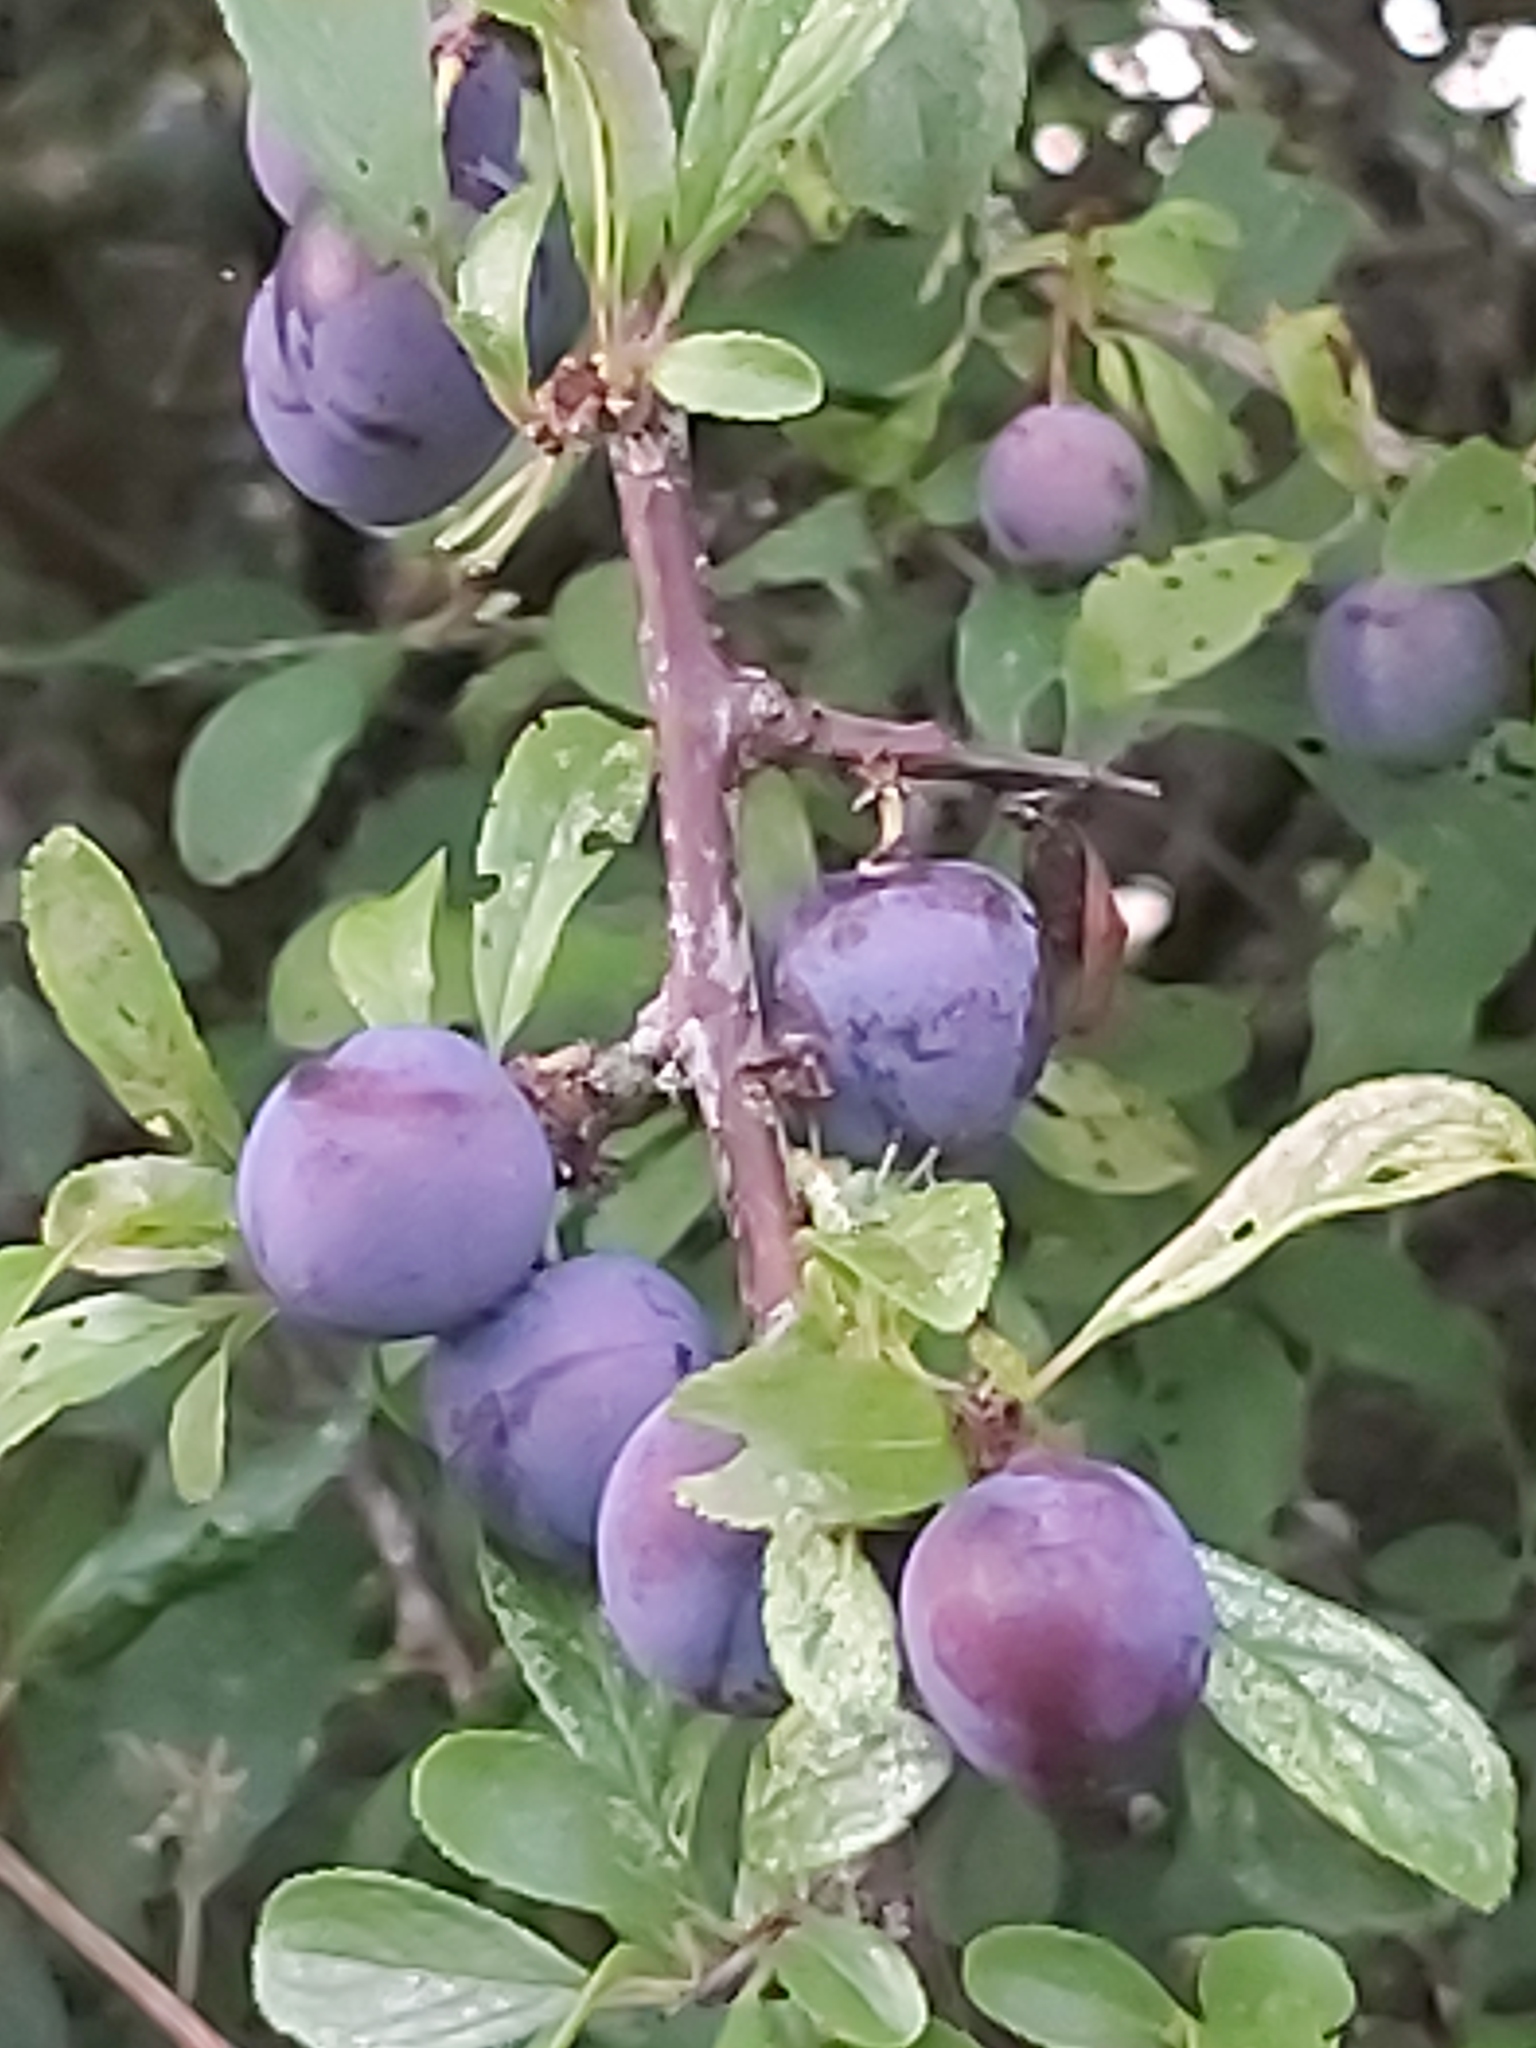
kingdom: Plantae
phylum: Tracheophyta
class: Magnoliopsida
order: Rosales
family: Rosaceae
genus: Prunus
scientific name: Prunus spinosa
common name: Blackthorn
